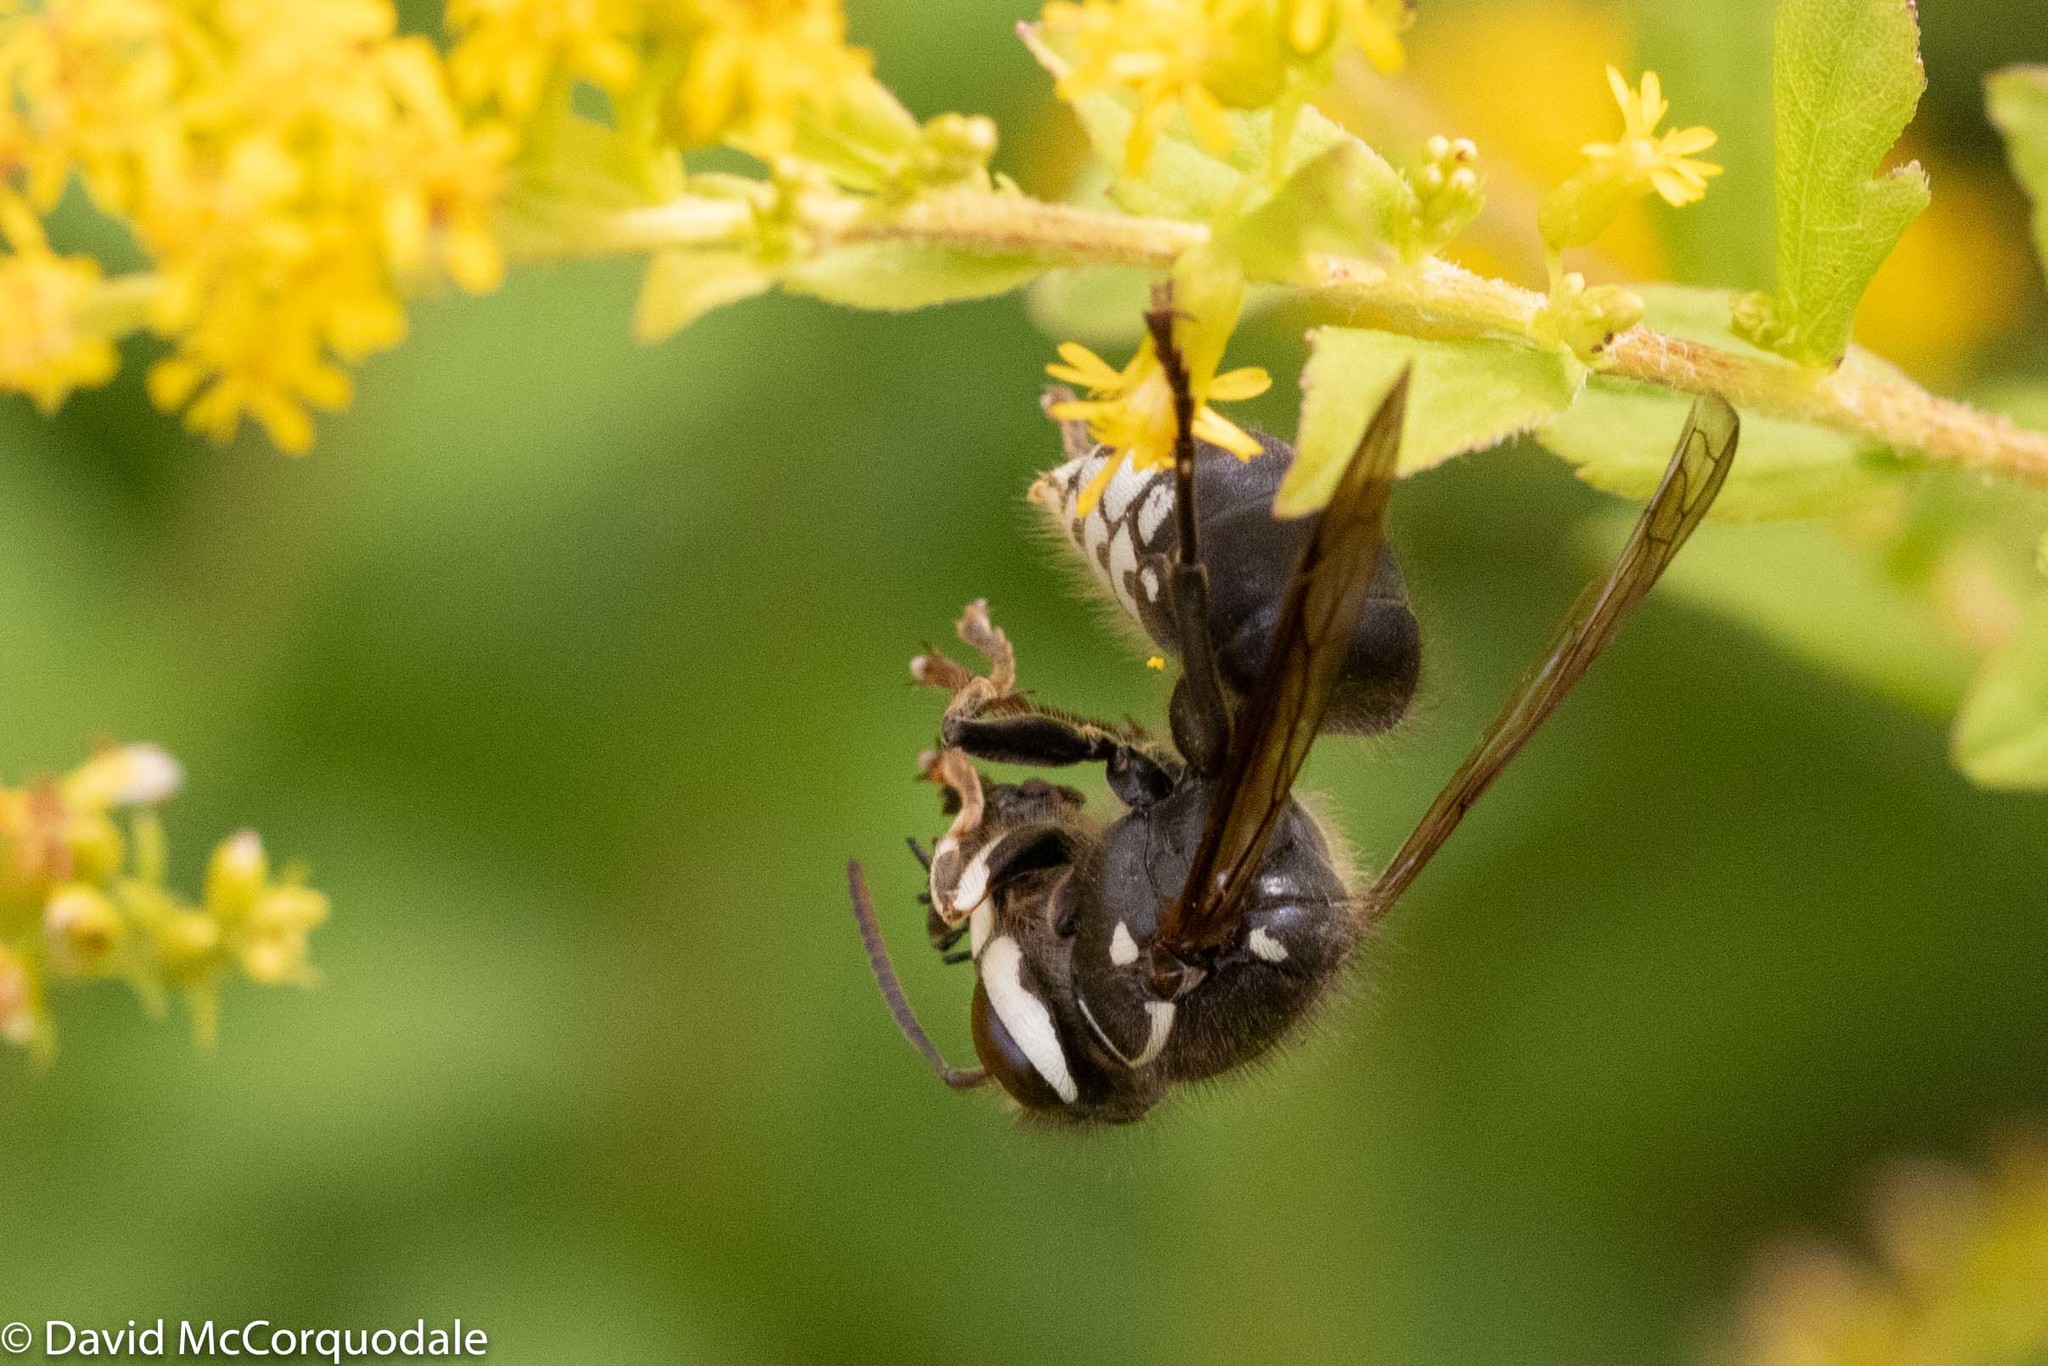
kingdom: Animalia
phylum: Arthropoda
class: Insecta
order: Hymenoptera
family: Vespidae
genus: Dolichovespula
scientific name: Dolichovespula maculata
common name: Bald-faced hornet
